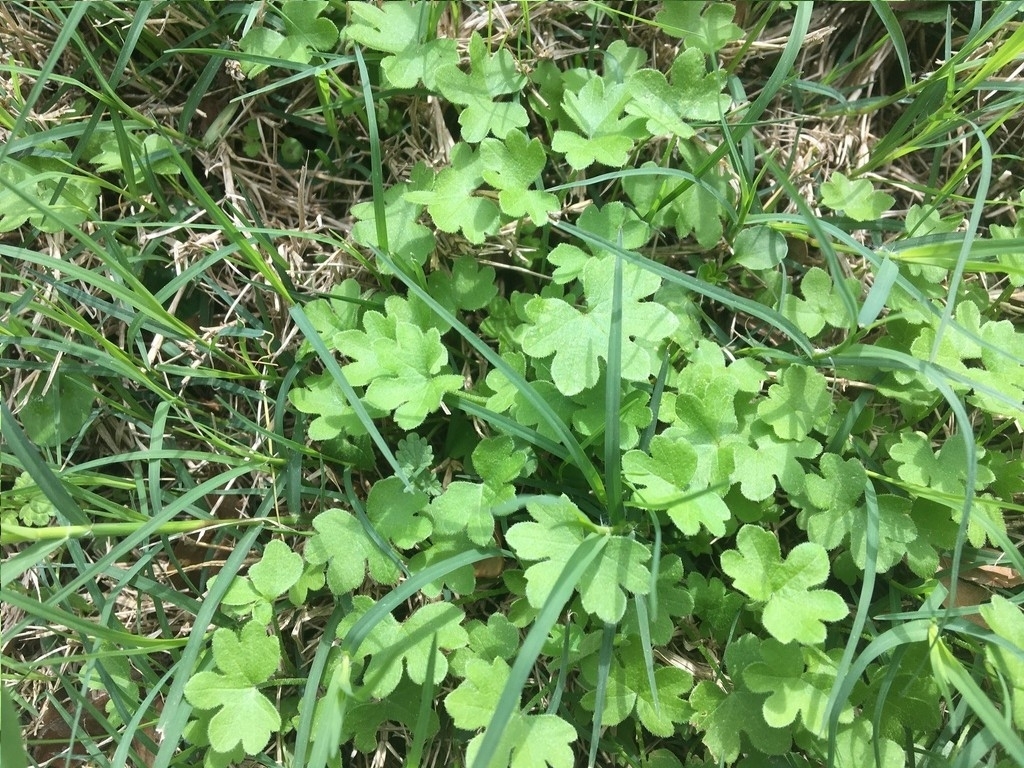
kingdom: Plantae
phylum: Tracheophyta
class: Magnoliopsida
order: Apiales
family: Apiaceae
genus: Bowlesia
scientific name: Bowlesia incana
